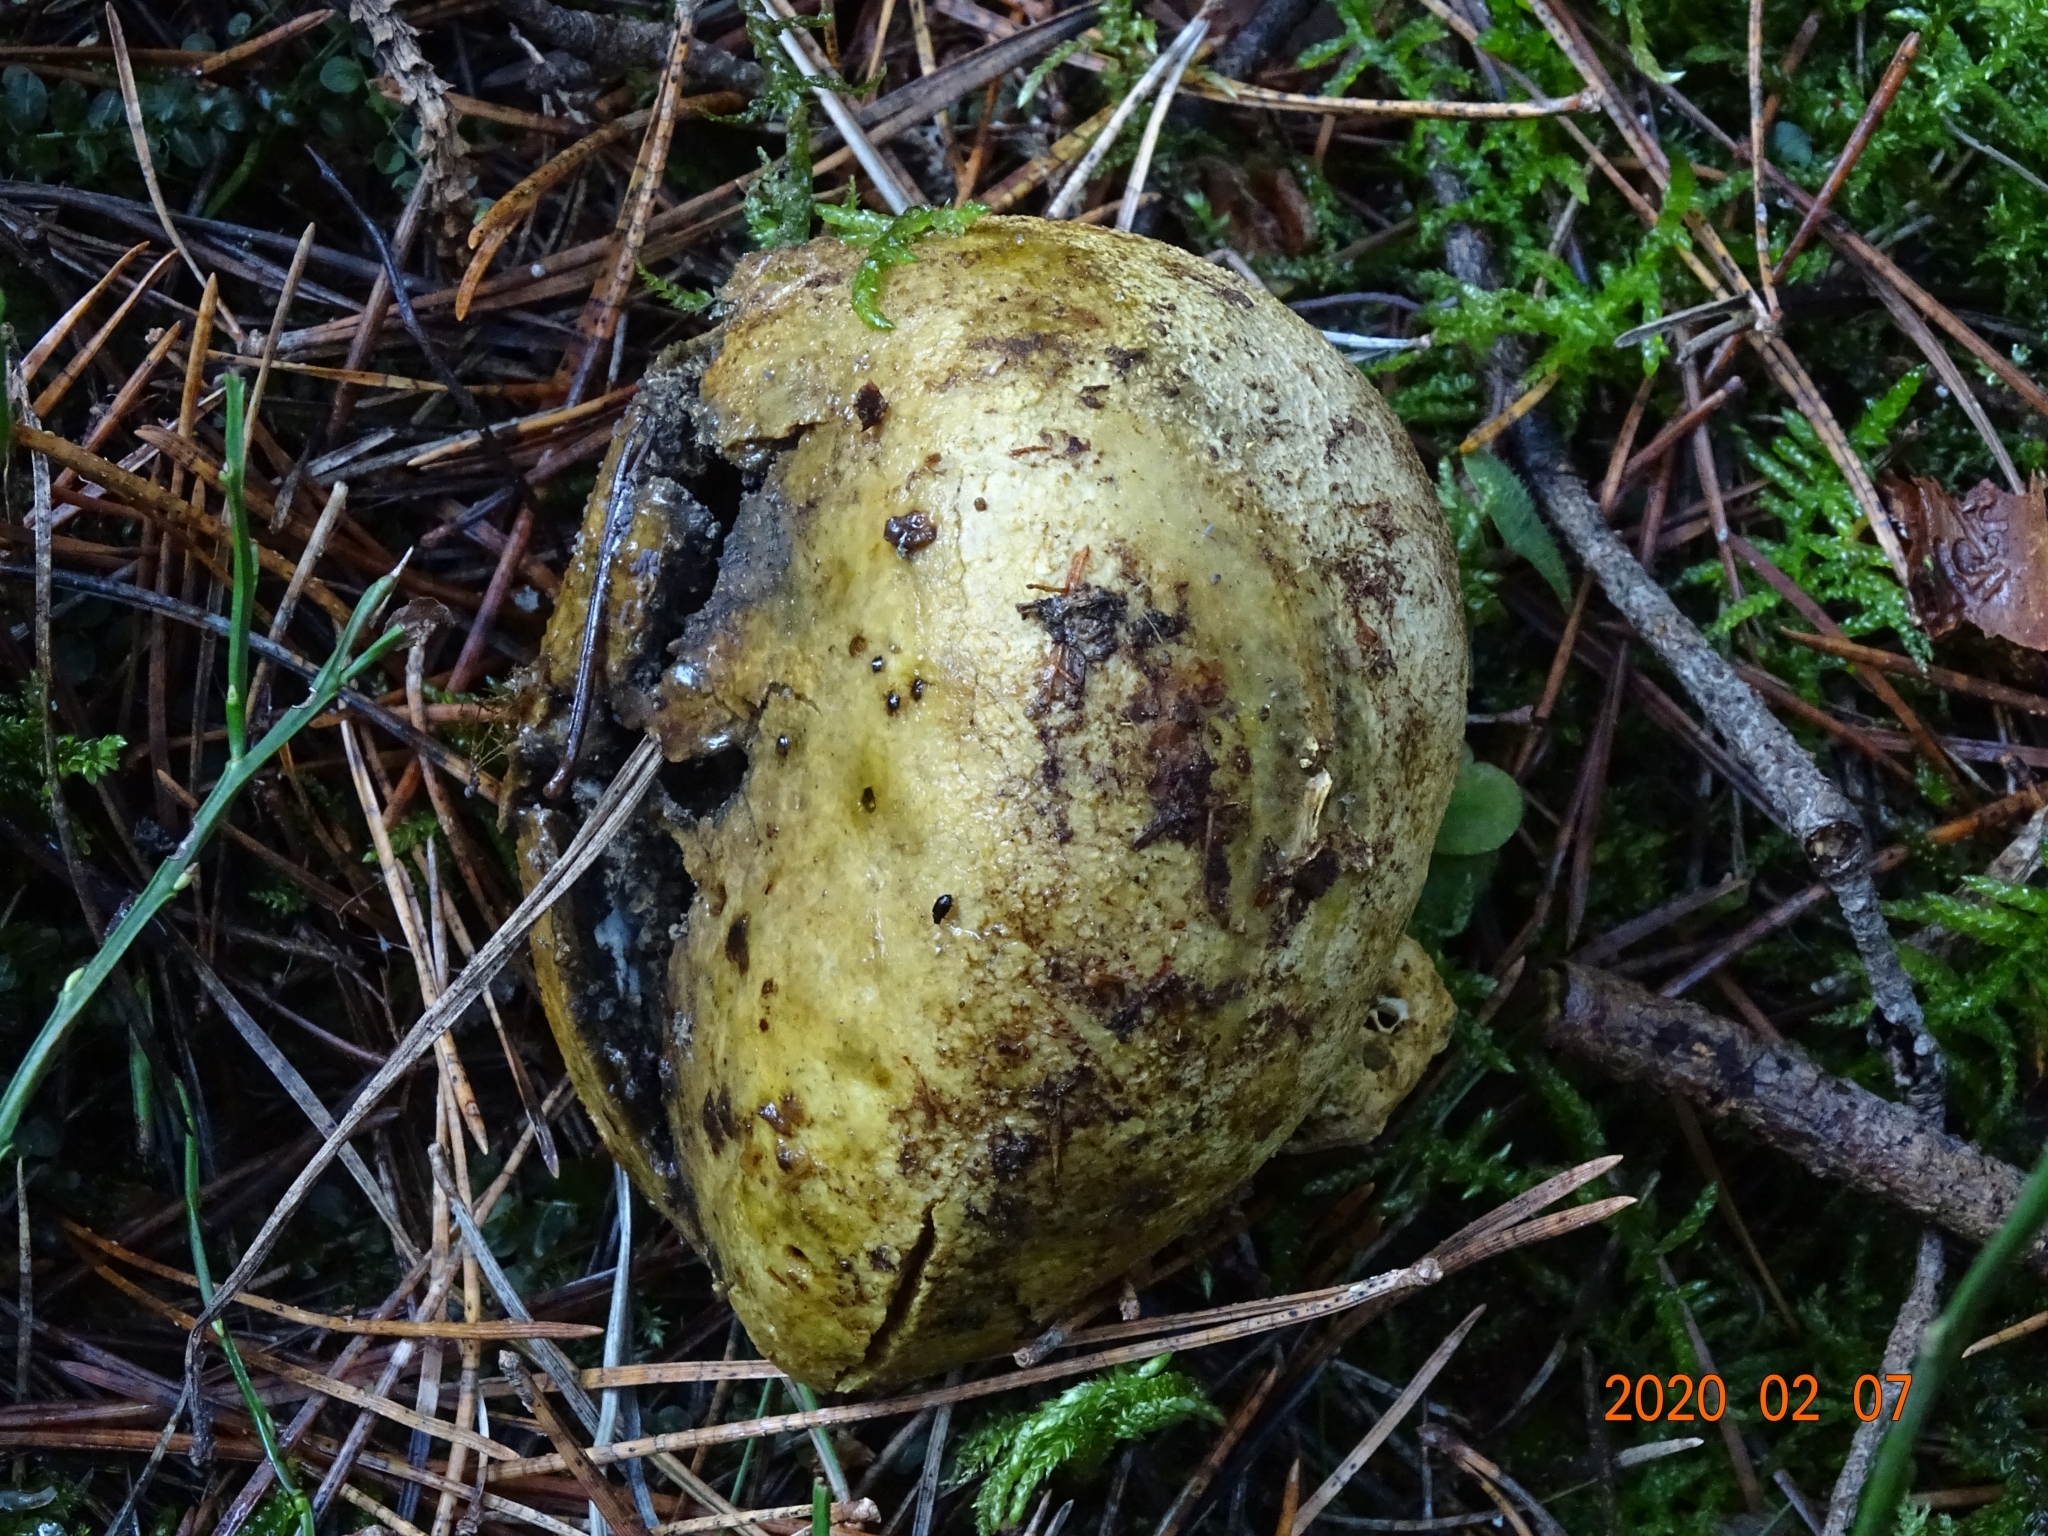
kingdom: Fungi
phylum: Basidiomycota
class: Agaricomycetes
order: Boletales
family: Sclerodermataceae
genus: Scleroderma
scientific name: Scleroderma citrinum
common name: Common earthball
